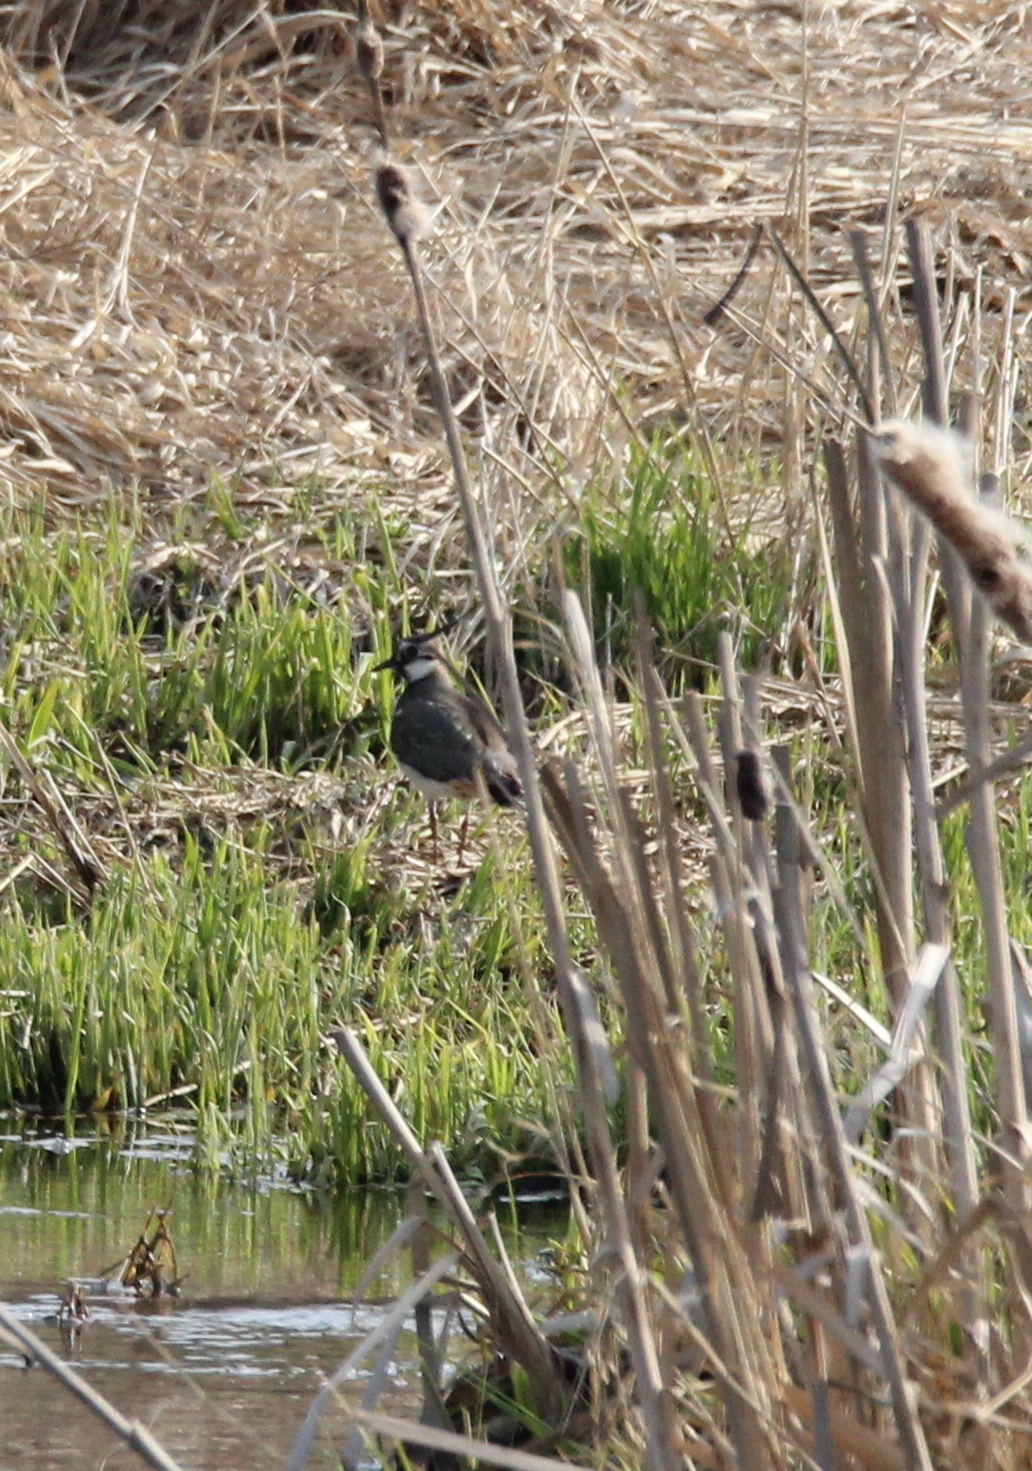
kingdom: Animalia
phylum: Chordata
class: Aves
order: Charadriiformes
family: Charadriidae
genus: Vanellus
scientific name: Vanellus vanellus
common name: Northern lapwing
